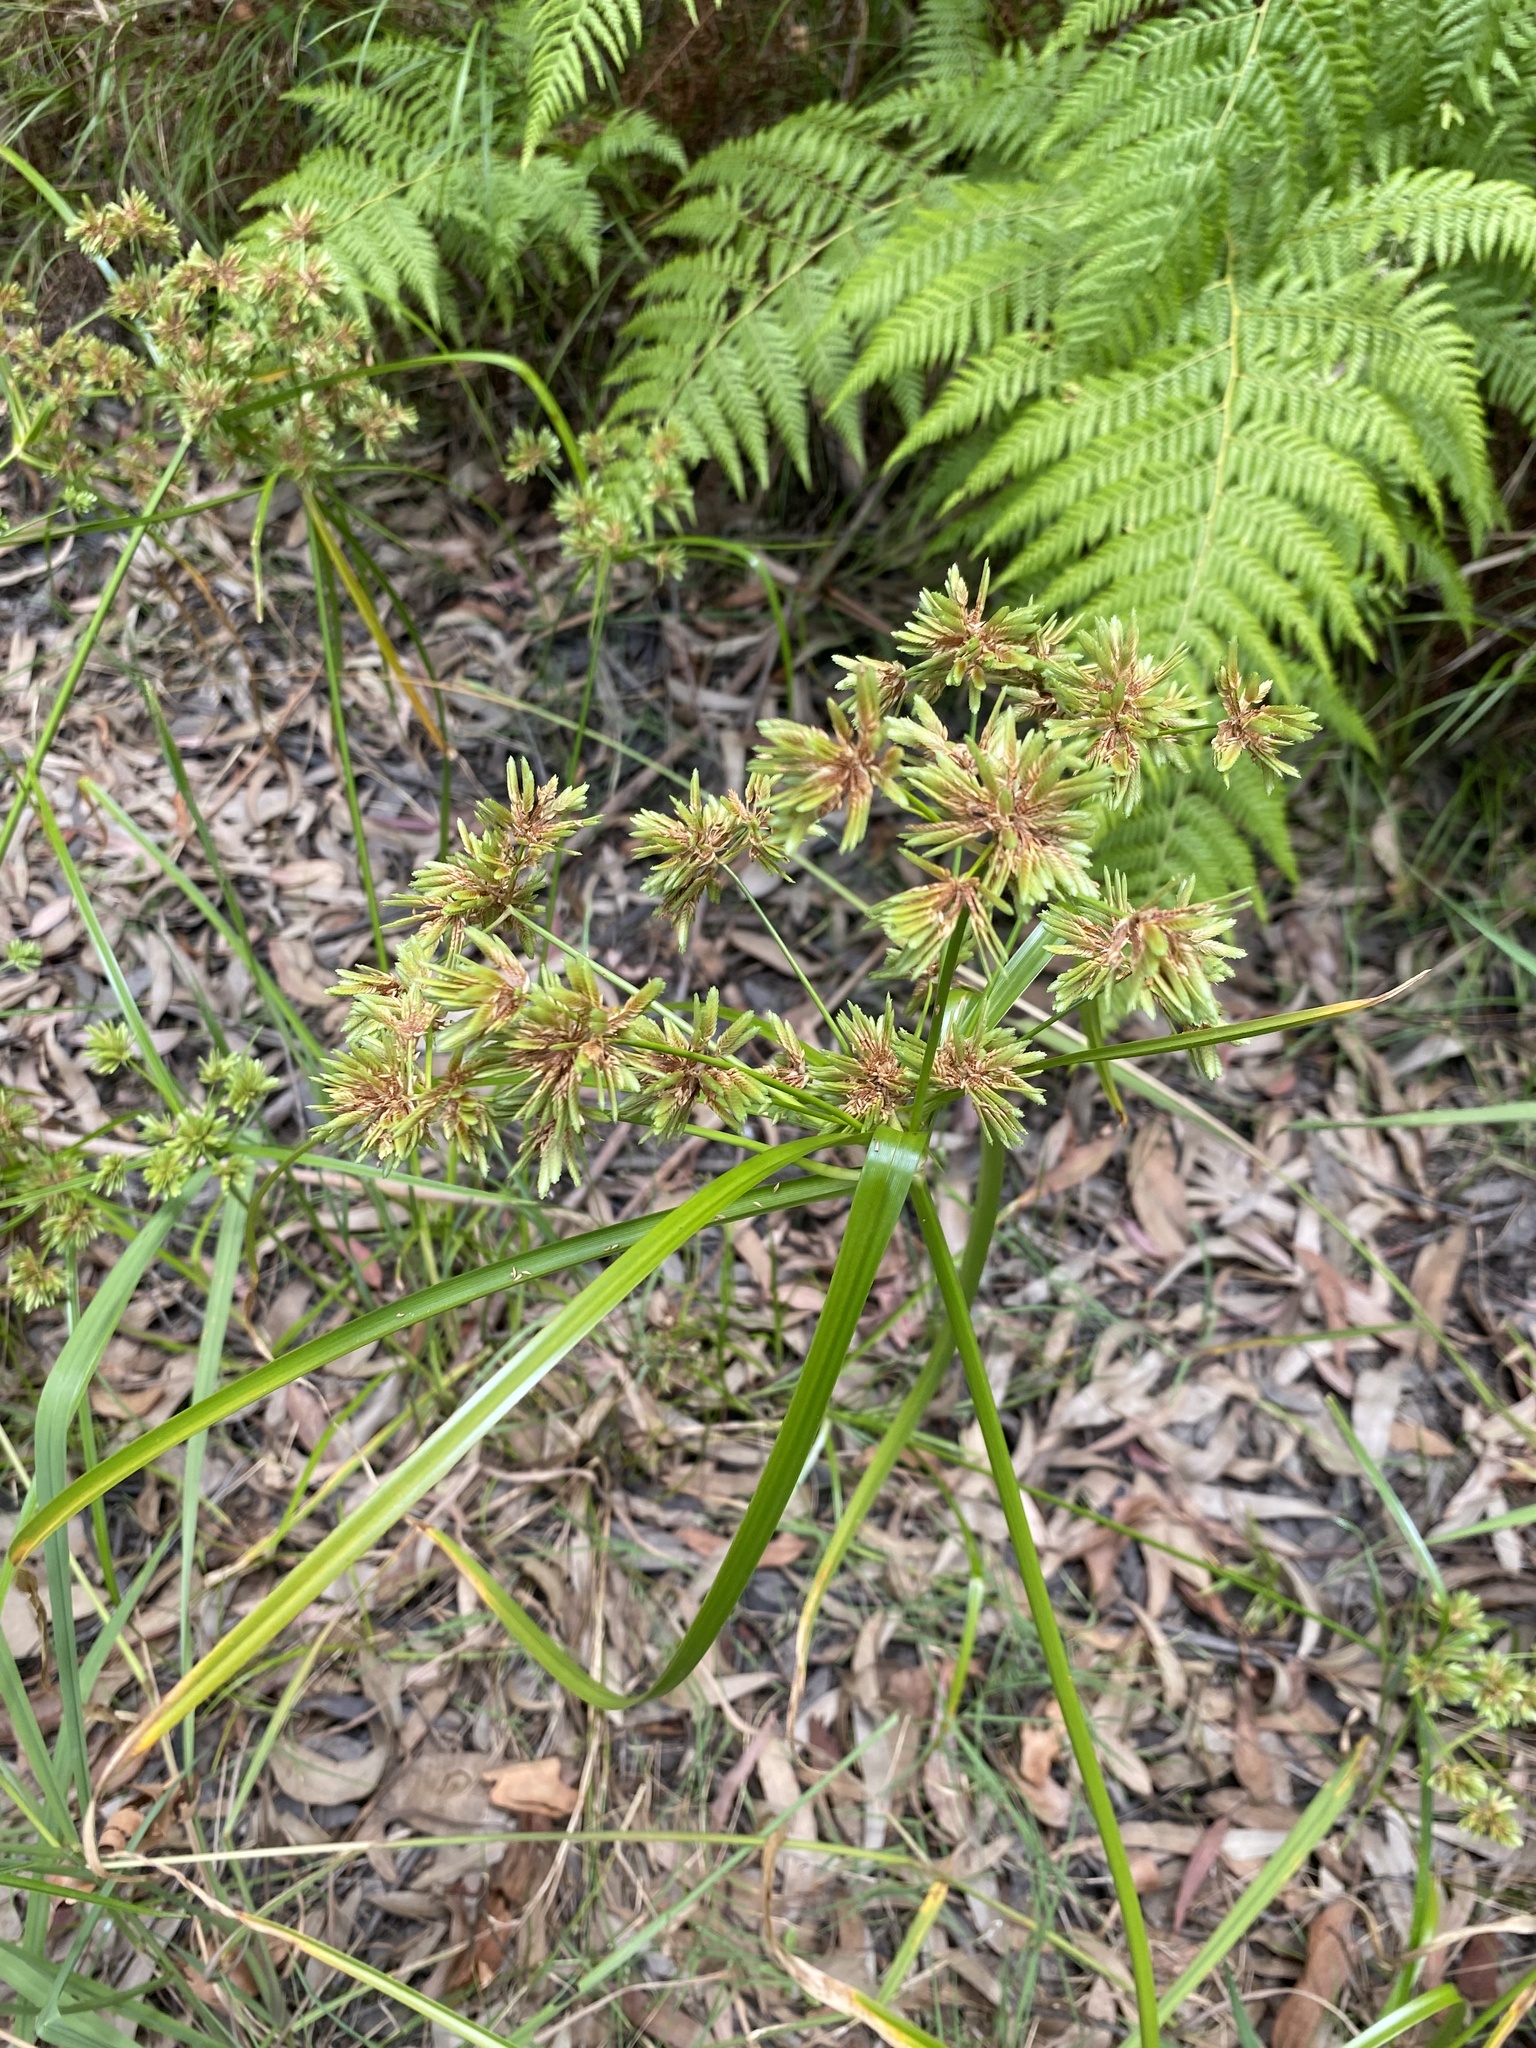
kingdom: Plantae
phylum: Tracheophyta
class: Liliopsida
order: Poales
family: Cyperaceae
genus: Cyperus
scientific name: Cyperus eragrostis
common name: Tall flatsedge
